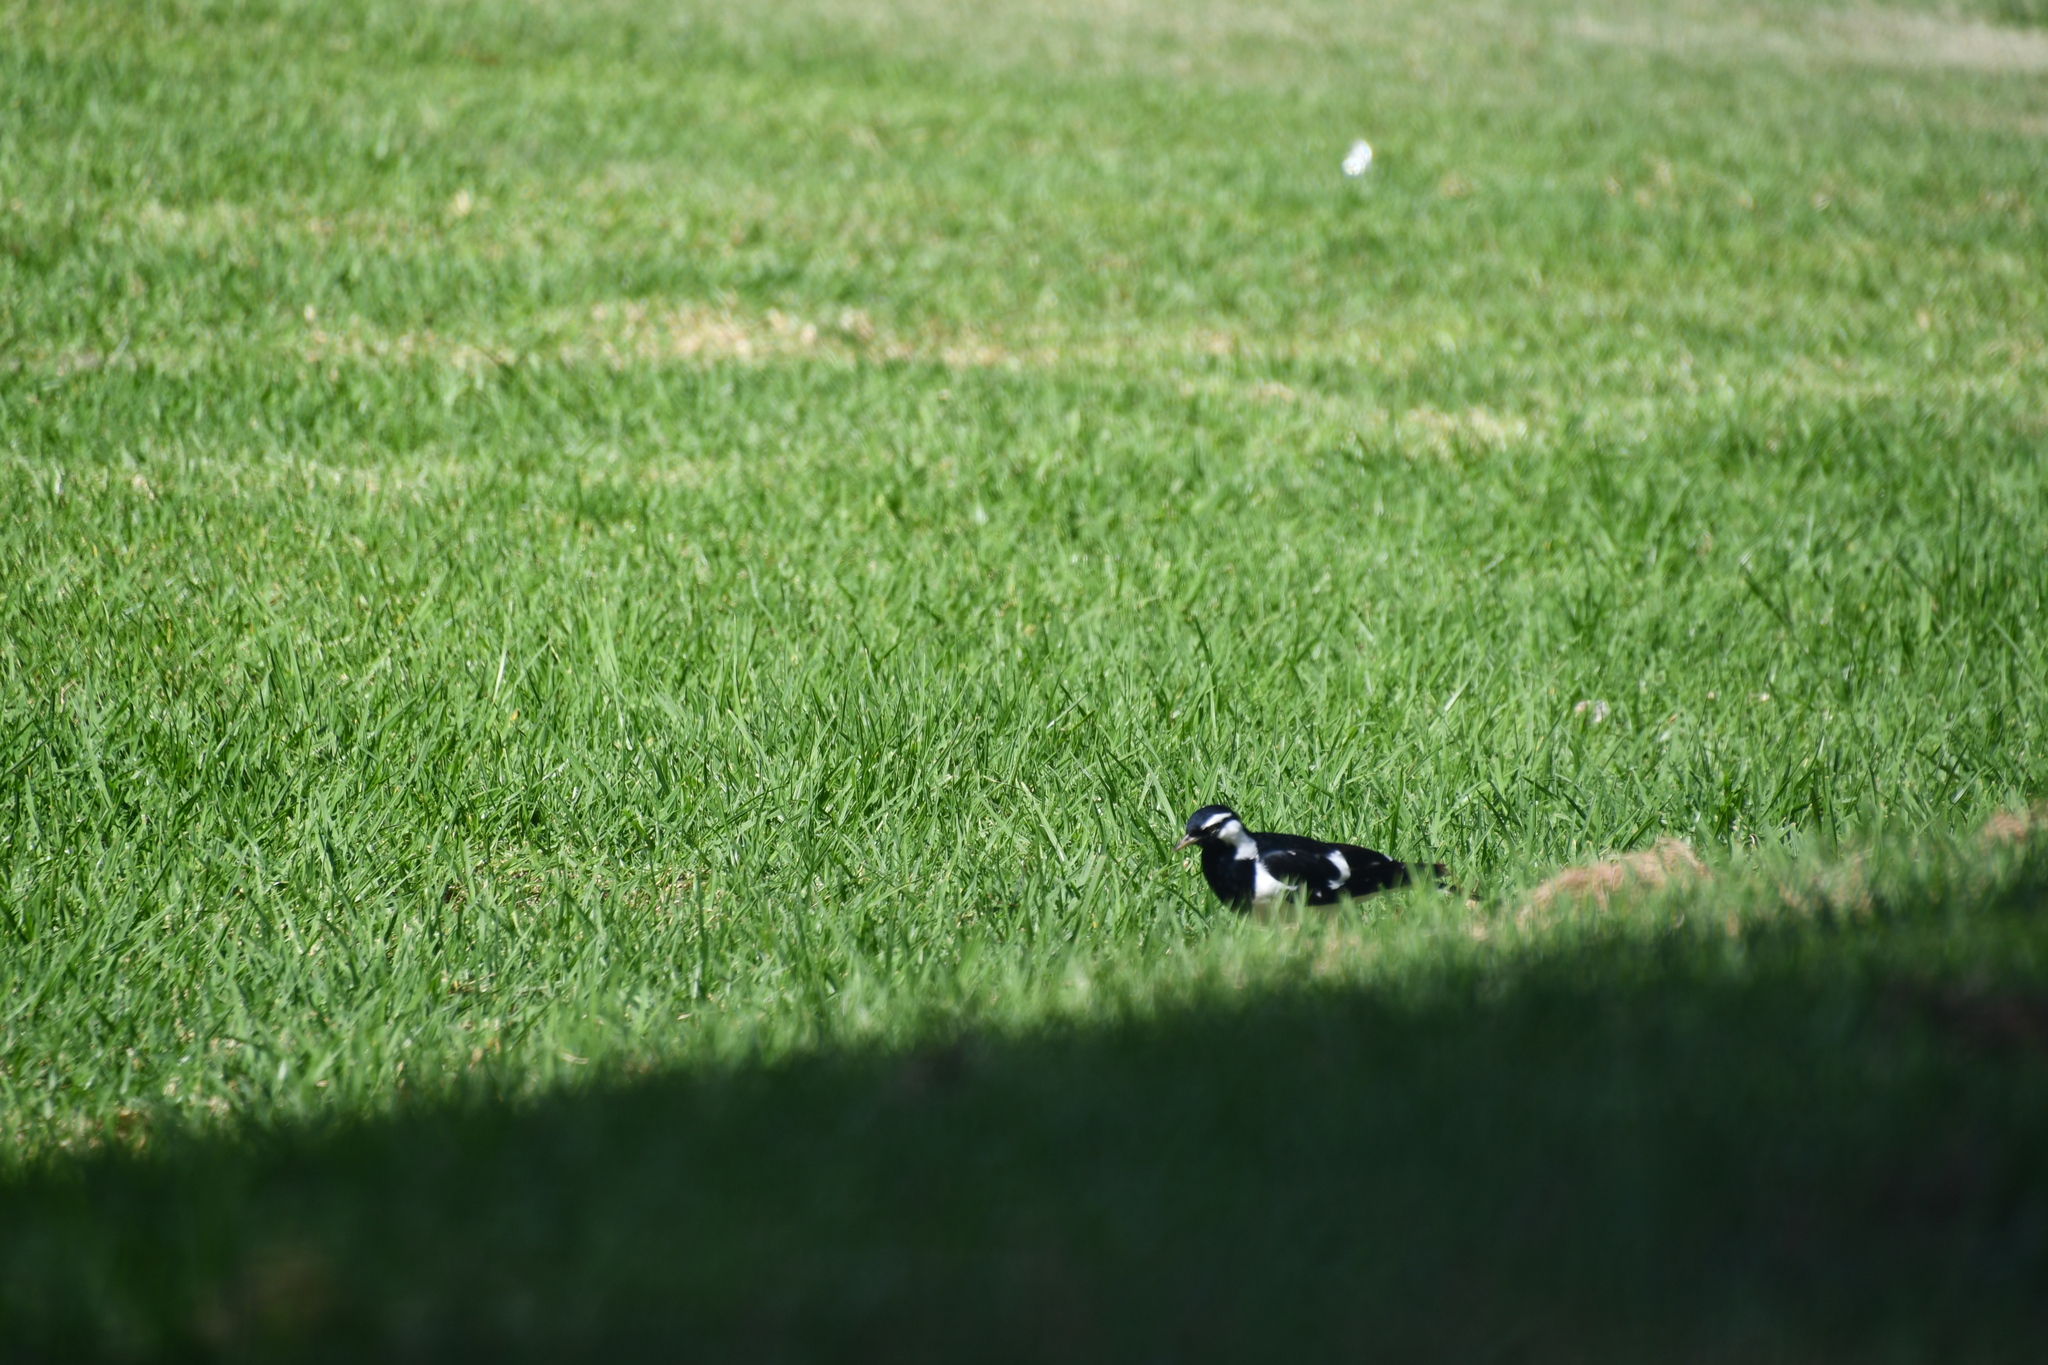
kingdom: Animalia
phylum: Chordata
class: Aves
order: Passeriformes
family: Monarchidae
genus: Grallina
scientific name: Grallina cyanoleuca
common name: Magpie-lark
